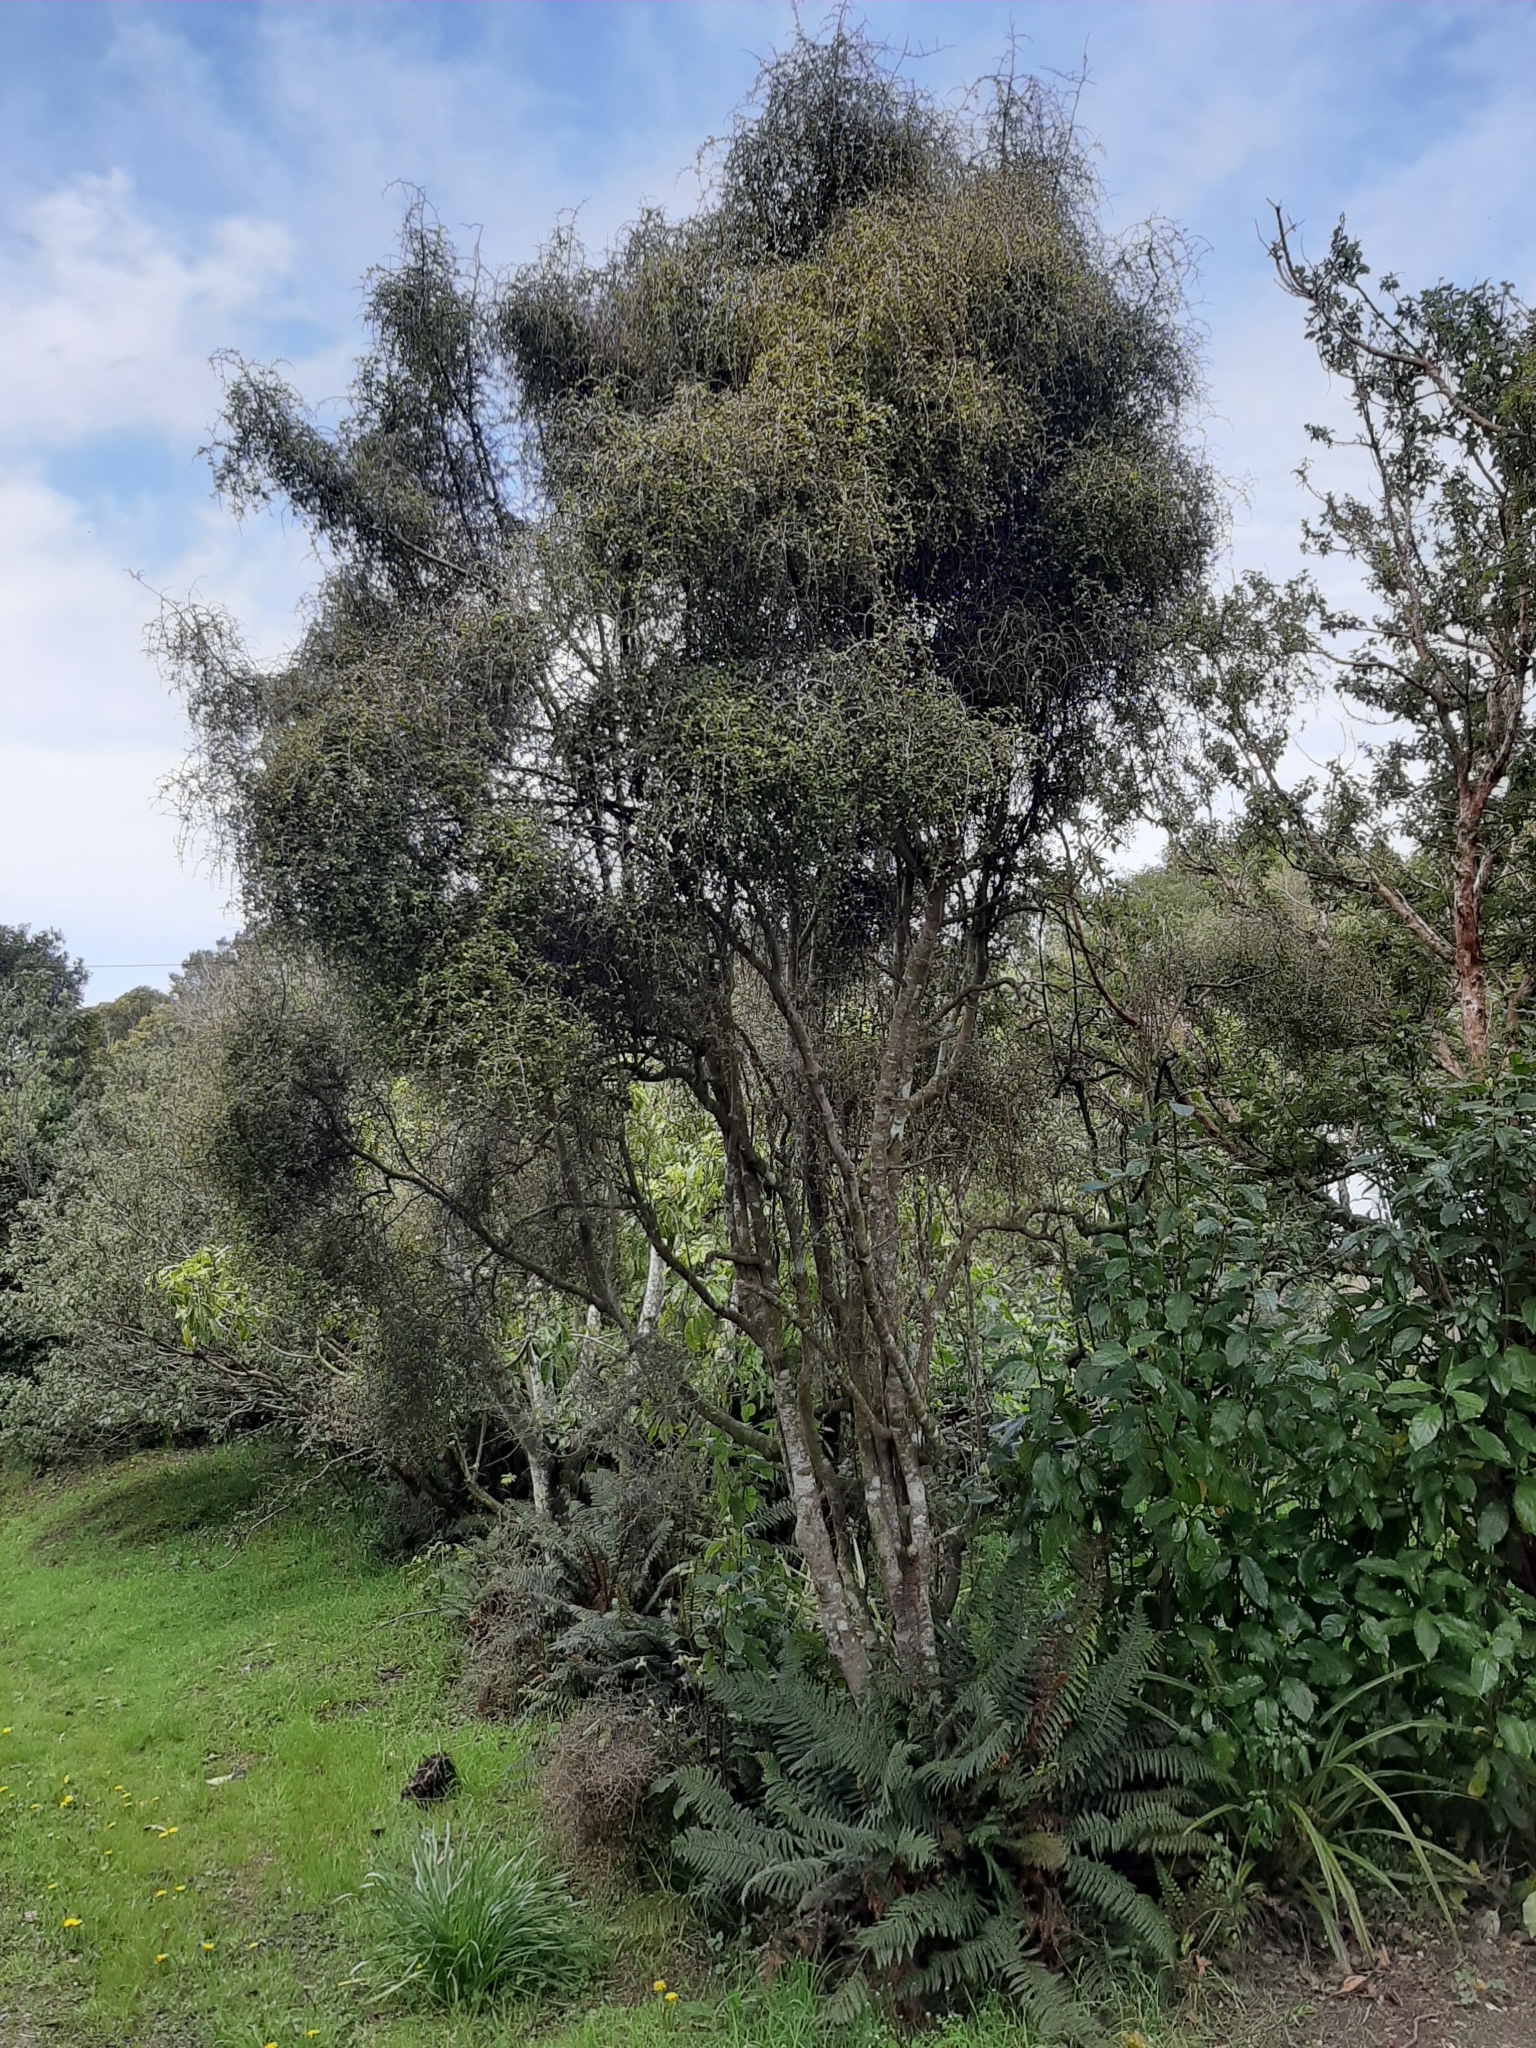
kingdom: Plantae
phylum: Tracheophyta
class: Magnoliopsida
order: Ericales
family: Primulaceae
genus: Myrsine
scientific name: Myrsine divaricata
